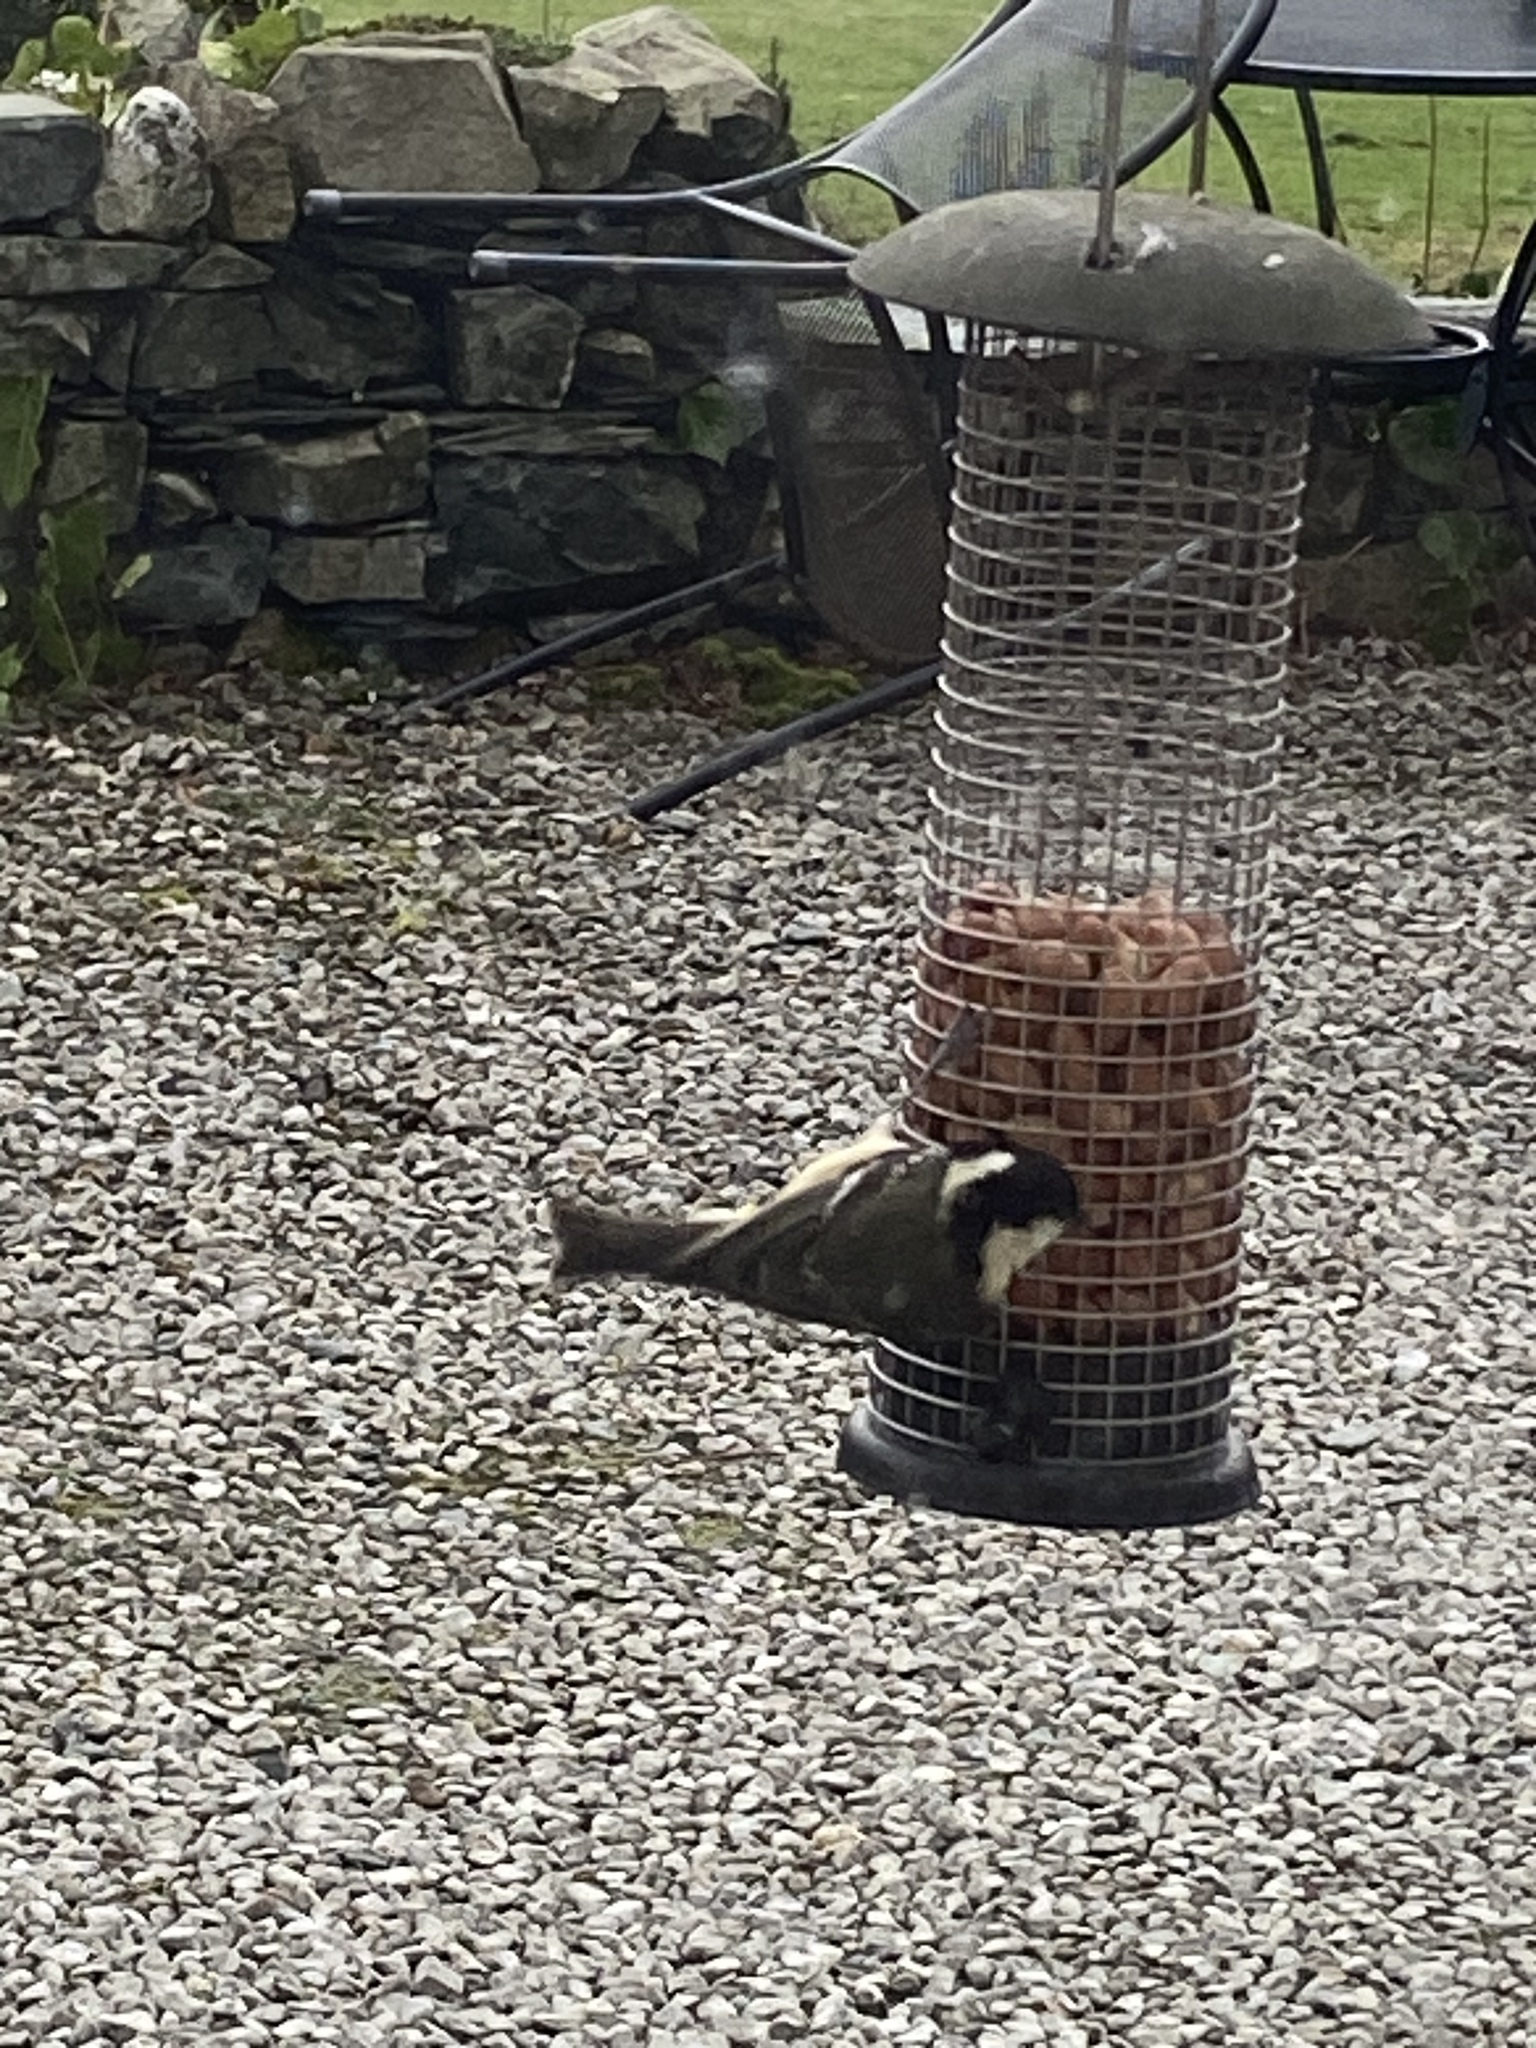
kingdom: Animalia
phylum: Chordata
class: Aves
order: Passeriformes
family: Paridae
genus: Periparus
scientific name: Periparus ater
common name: Coal tit
